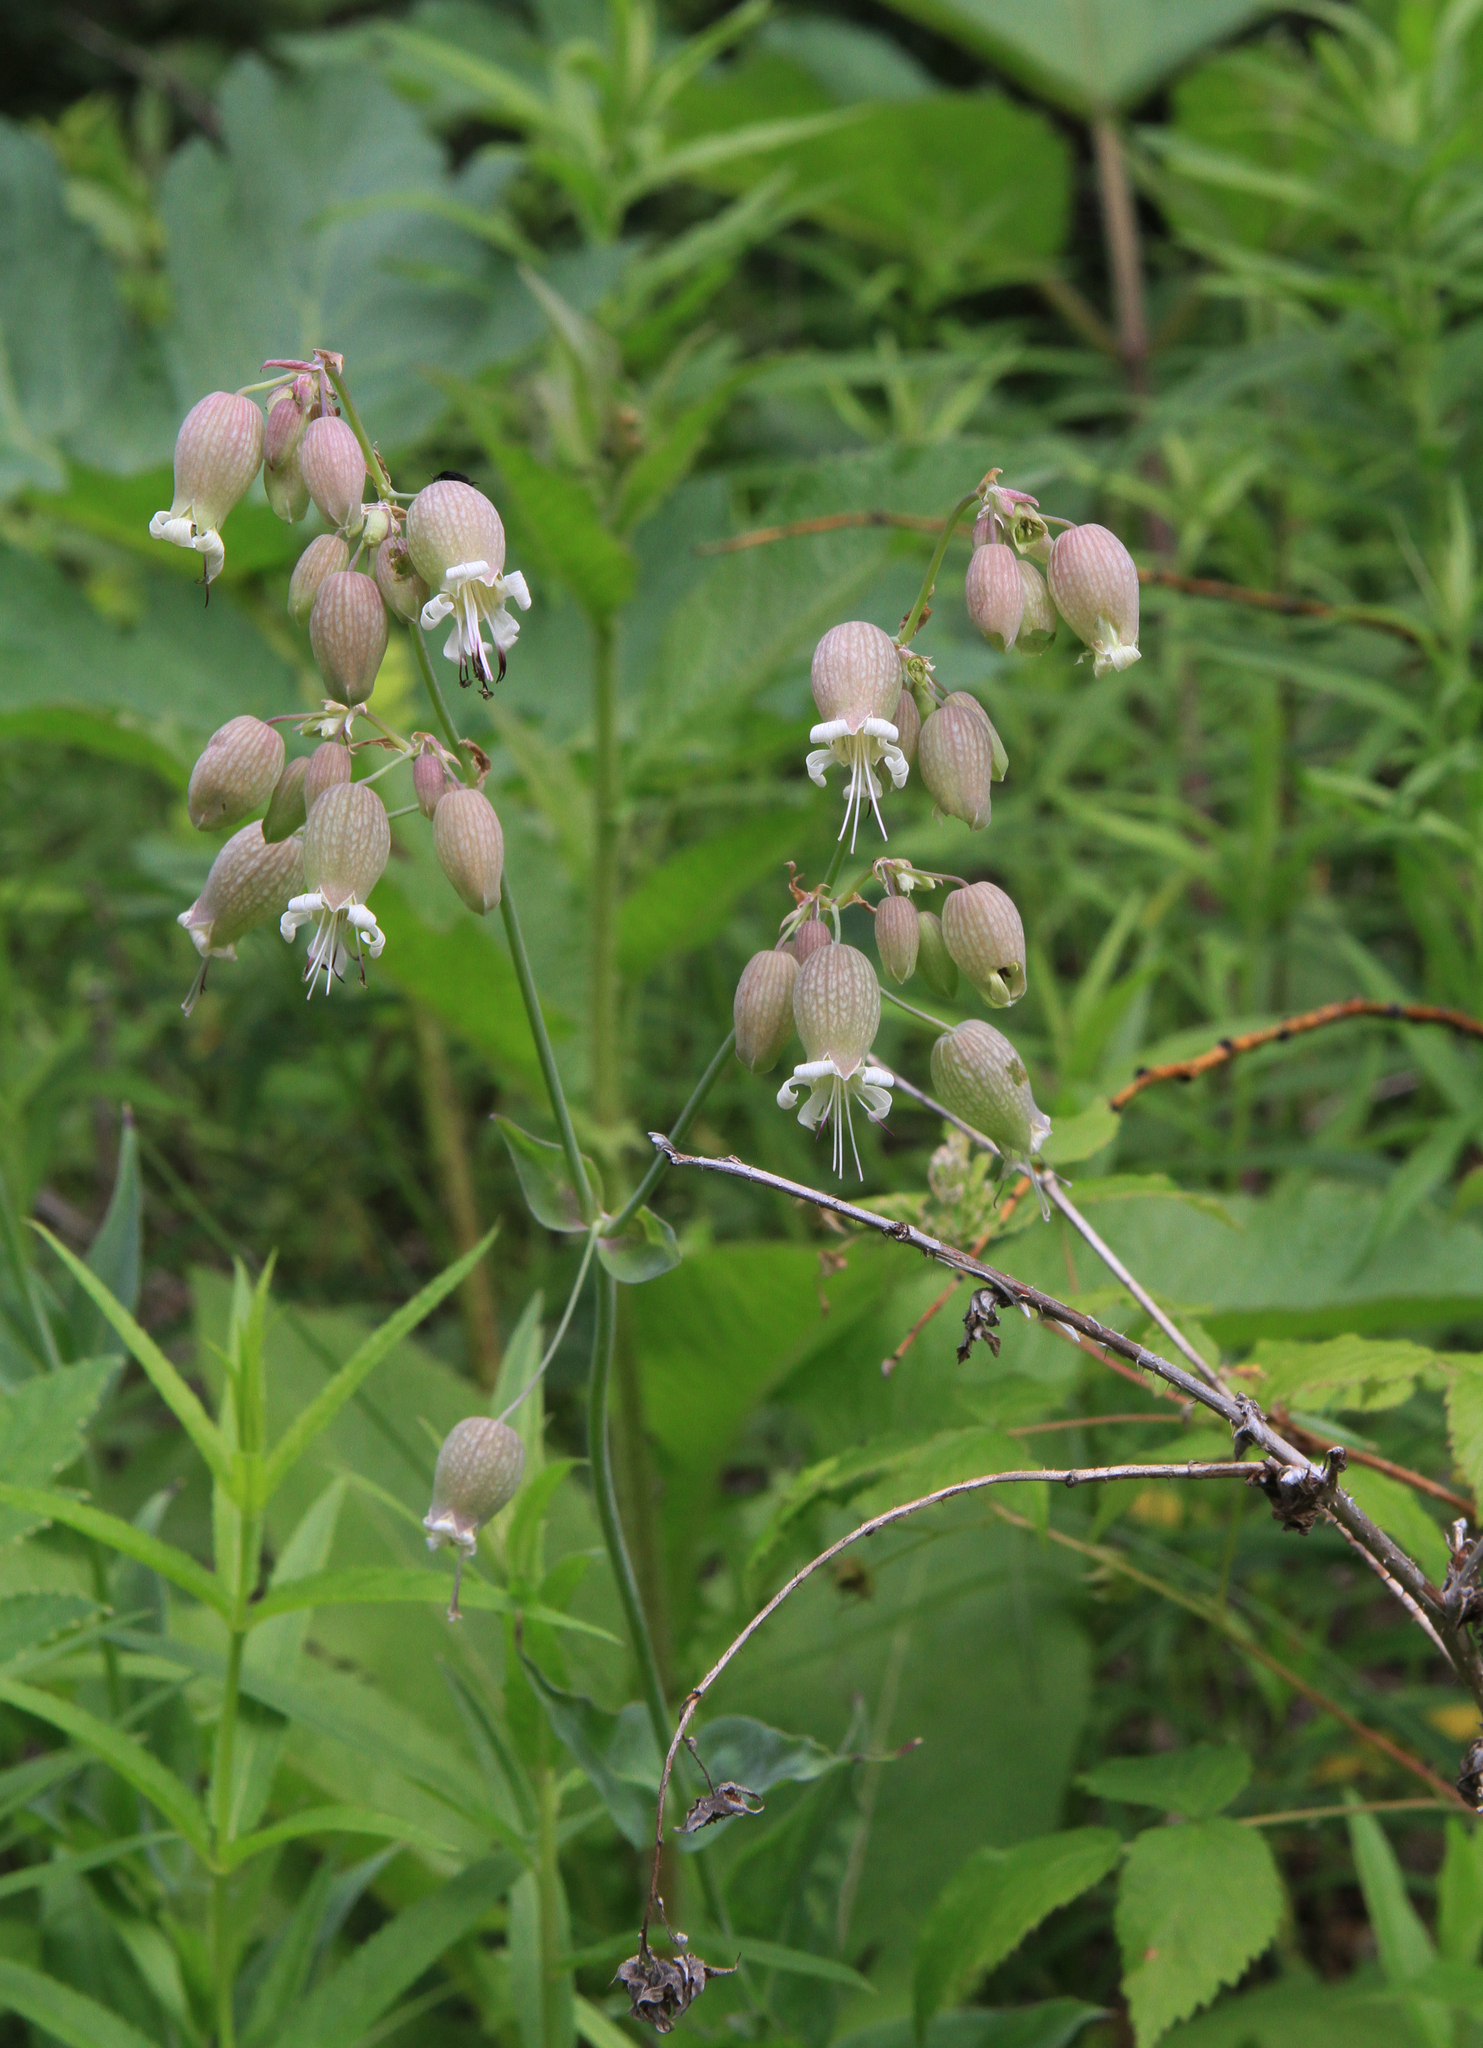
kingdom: Plantae
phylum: Tracheophyta
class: Magnoliopsida
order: Caryophyllales
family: Caryophyllaceae
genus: Silene
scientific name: Silene vulgaris
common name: Bladder campion
